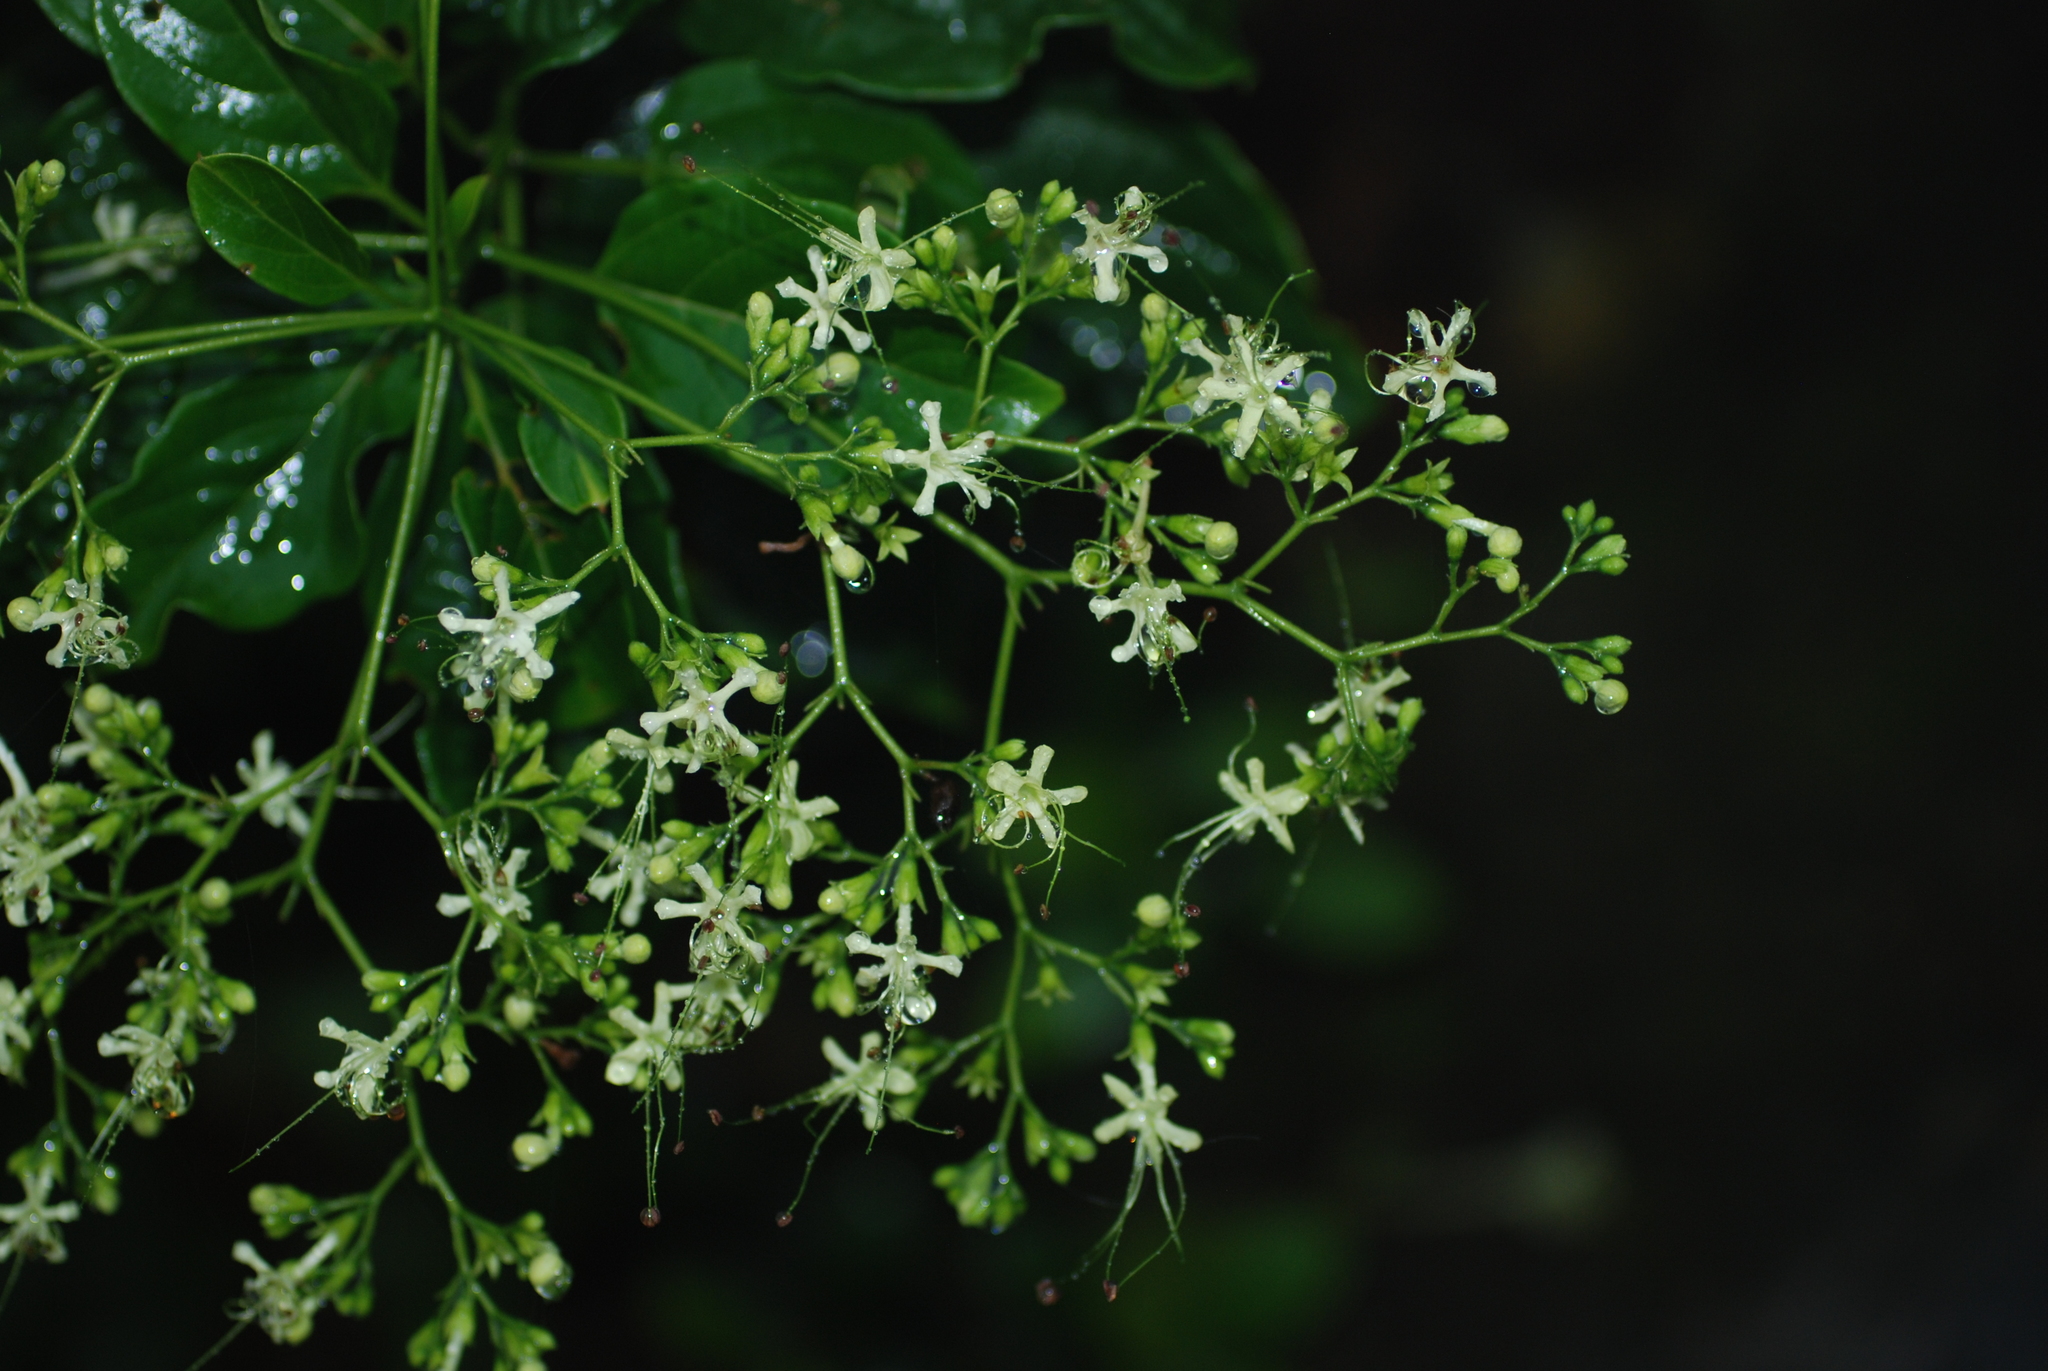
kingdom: Plantae
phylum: Tracheophyta
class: Magnoliopsida
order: Lamiales
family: Lamiaceae
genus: Clerodendrum
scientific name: Clerodendrum cyrtophyllum
